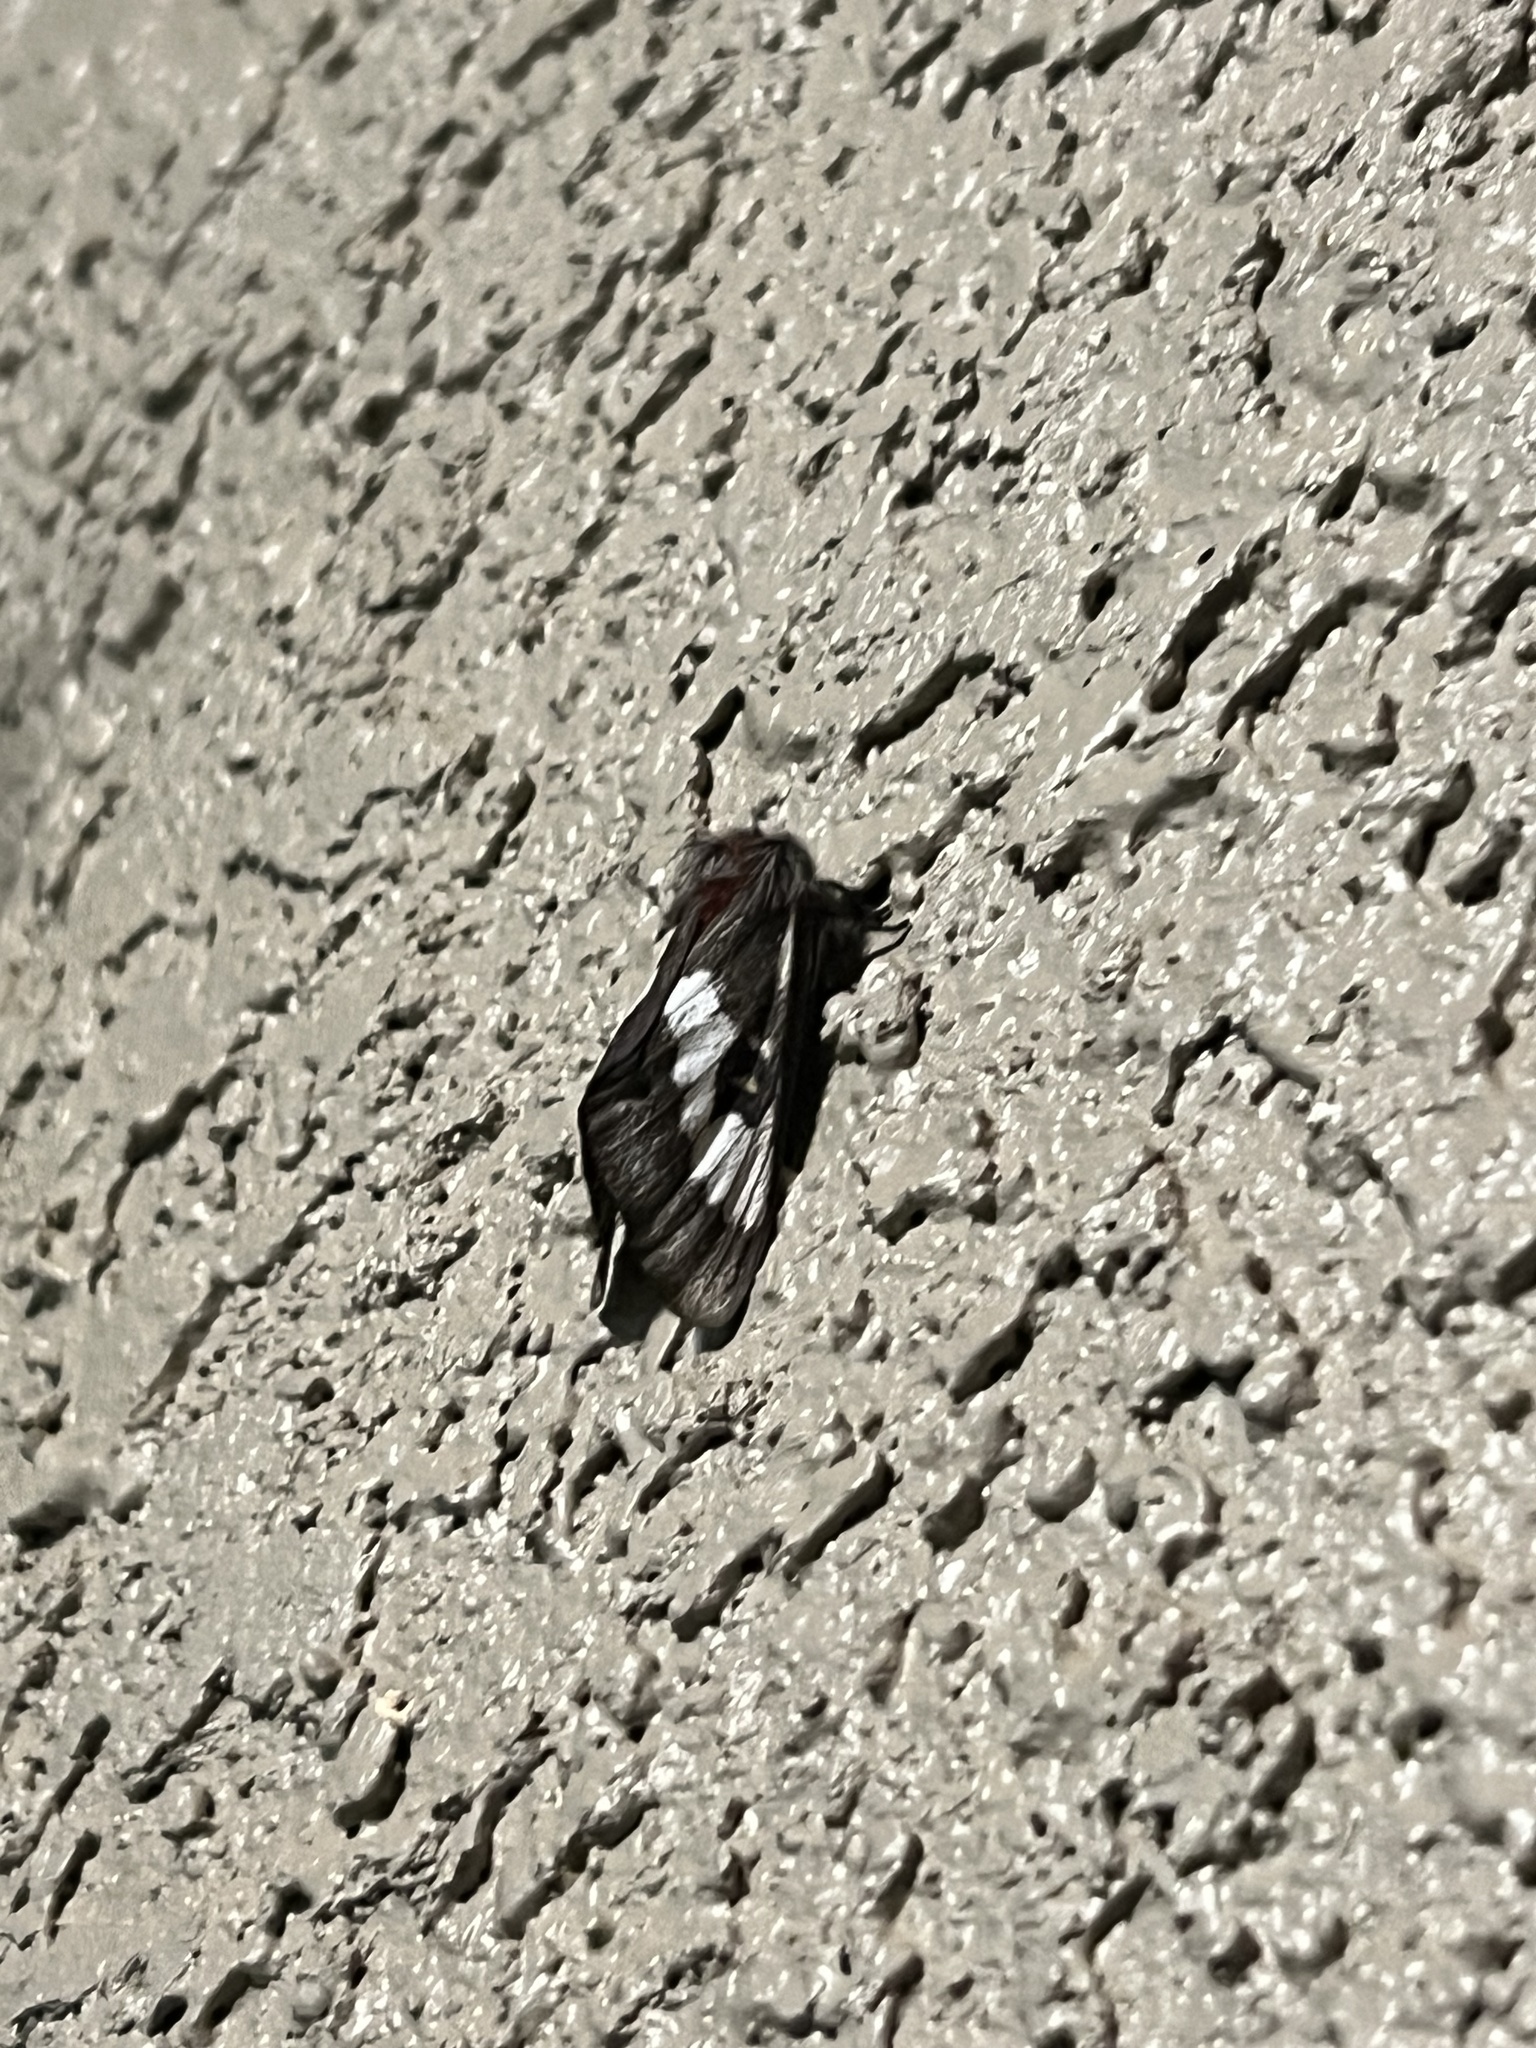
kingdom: Animalia
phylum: Arthropoda
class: Insecta
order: Lepidoptera
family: Saturniidae
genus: Hemileuca
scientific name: Hemileuca juno
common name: Juno buckmoth
